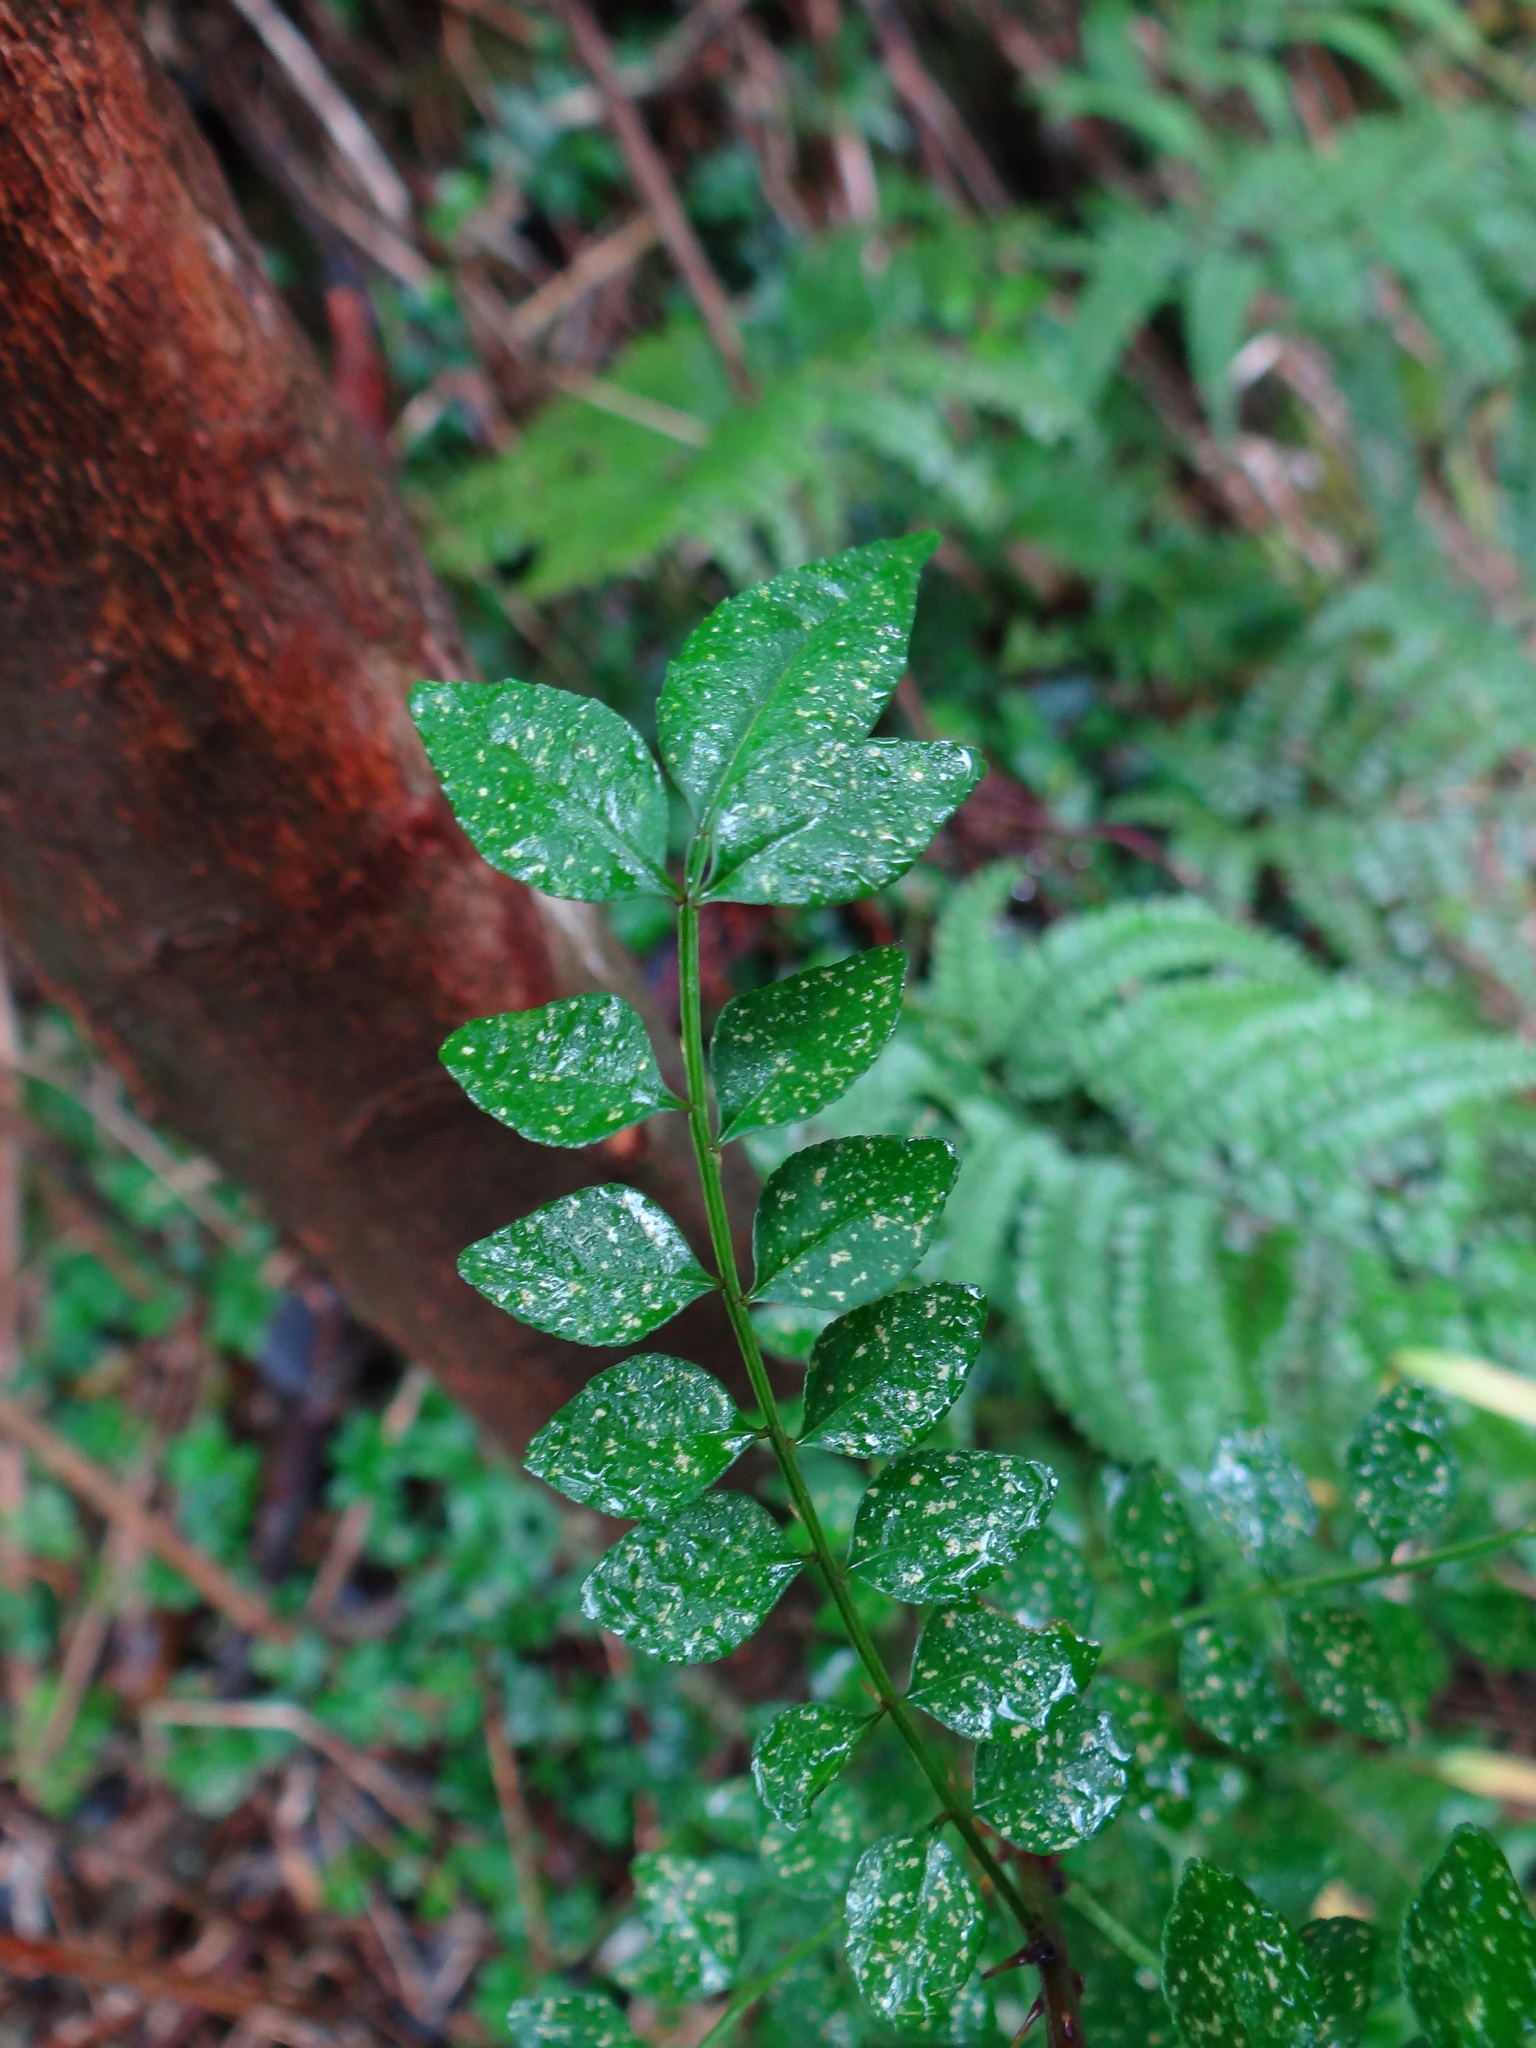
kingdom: Plantae
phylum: Tracheophyta
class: Magnoliopsida
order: Sapindales
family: Rutaceae
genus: Zanthoxylum
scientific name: Zanthoxylum schinifolium
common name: Sichuan-pepper
